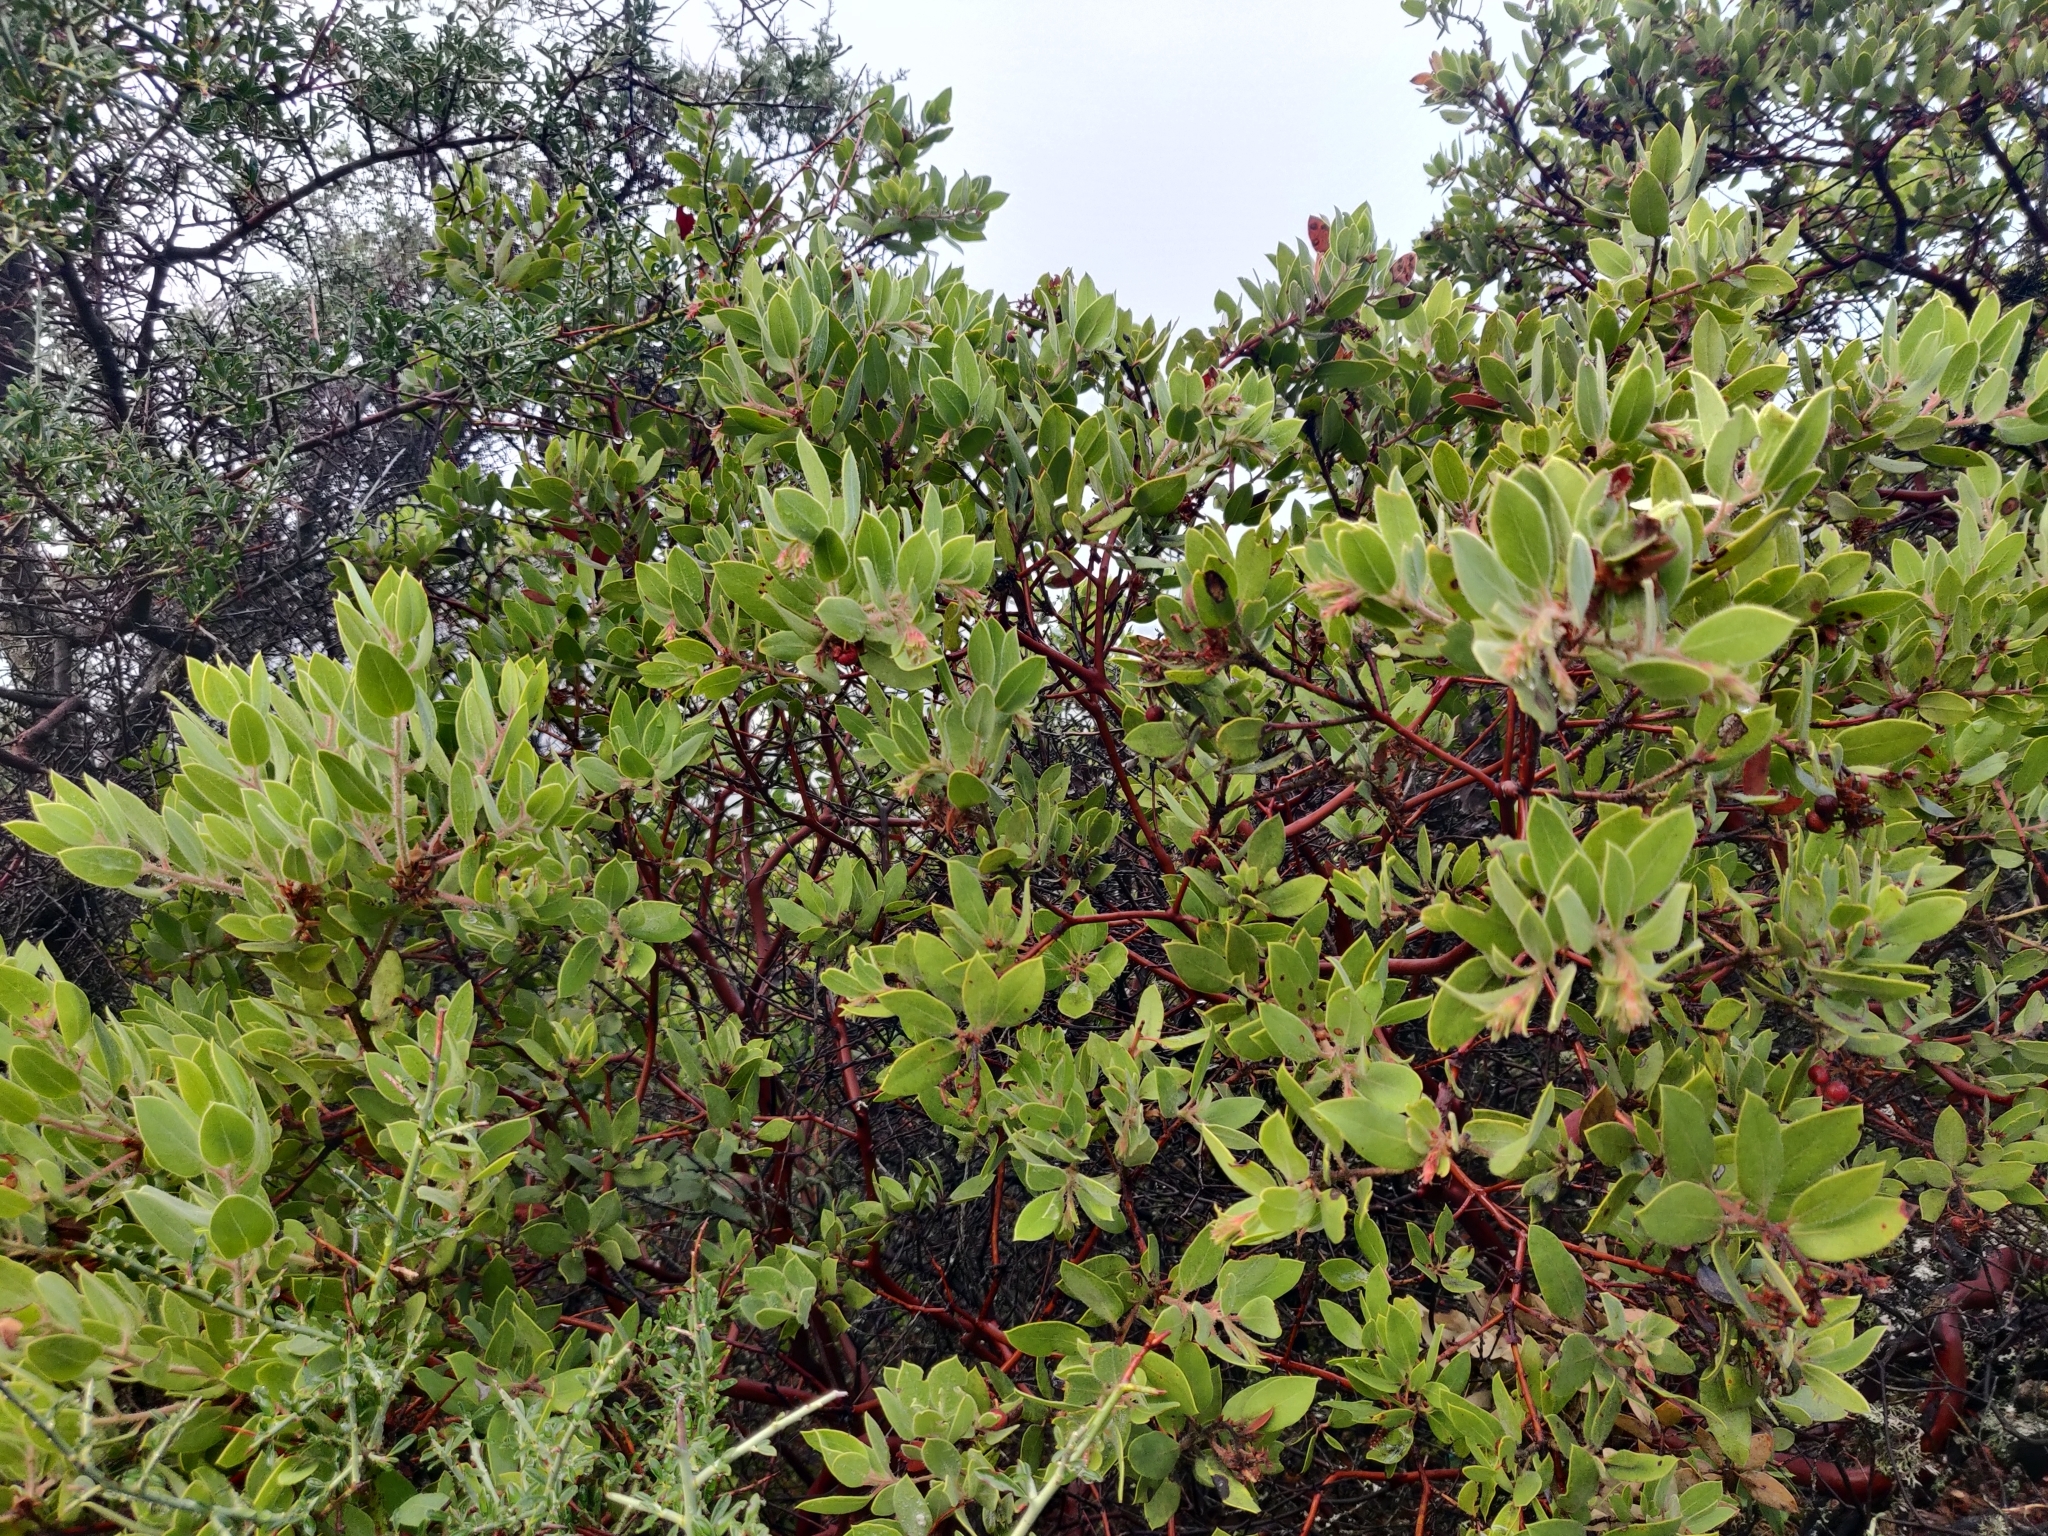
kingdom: Plantae
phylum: Tracheophyta
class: Magnoliopsida
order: Ericales
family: Ericaceae
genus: Arctostaphylos
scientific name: Arctostaphylos glandulosa
